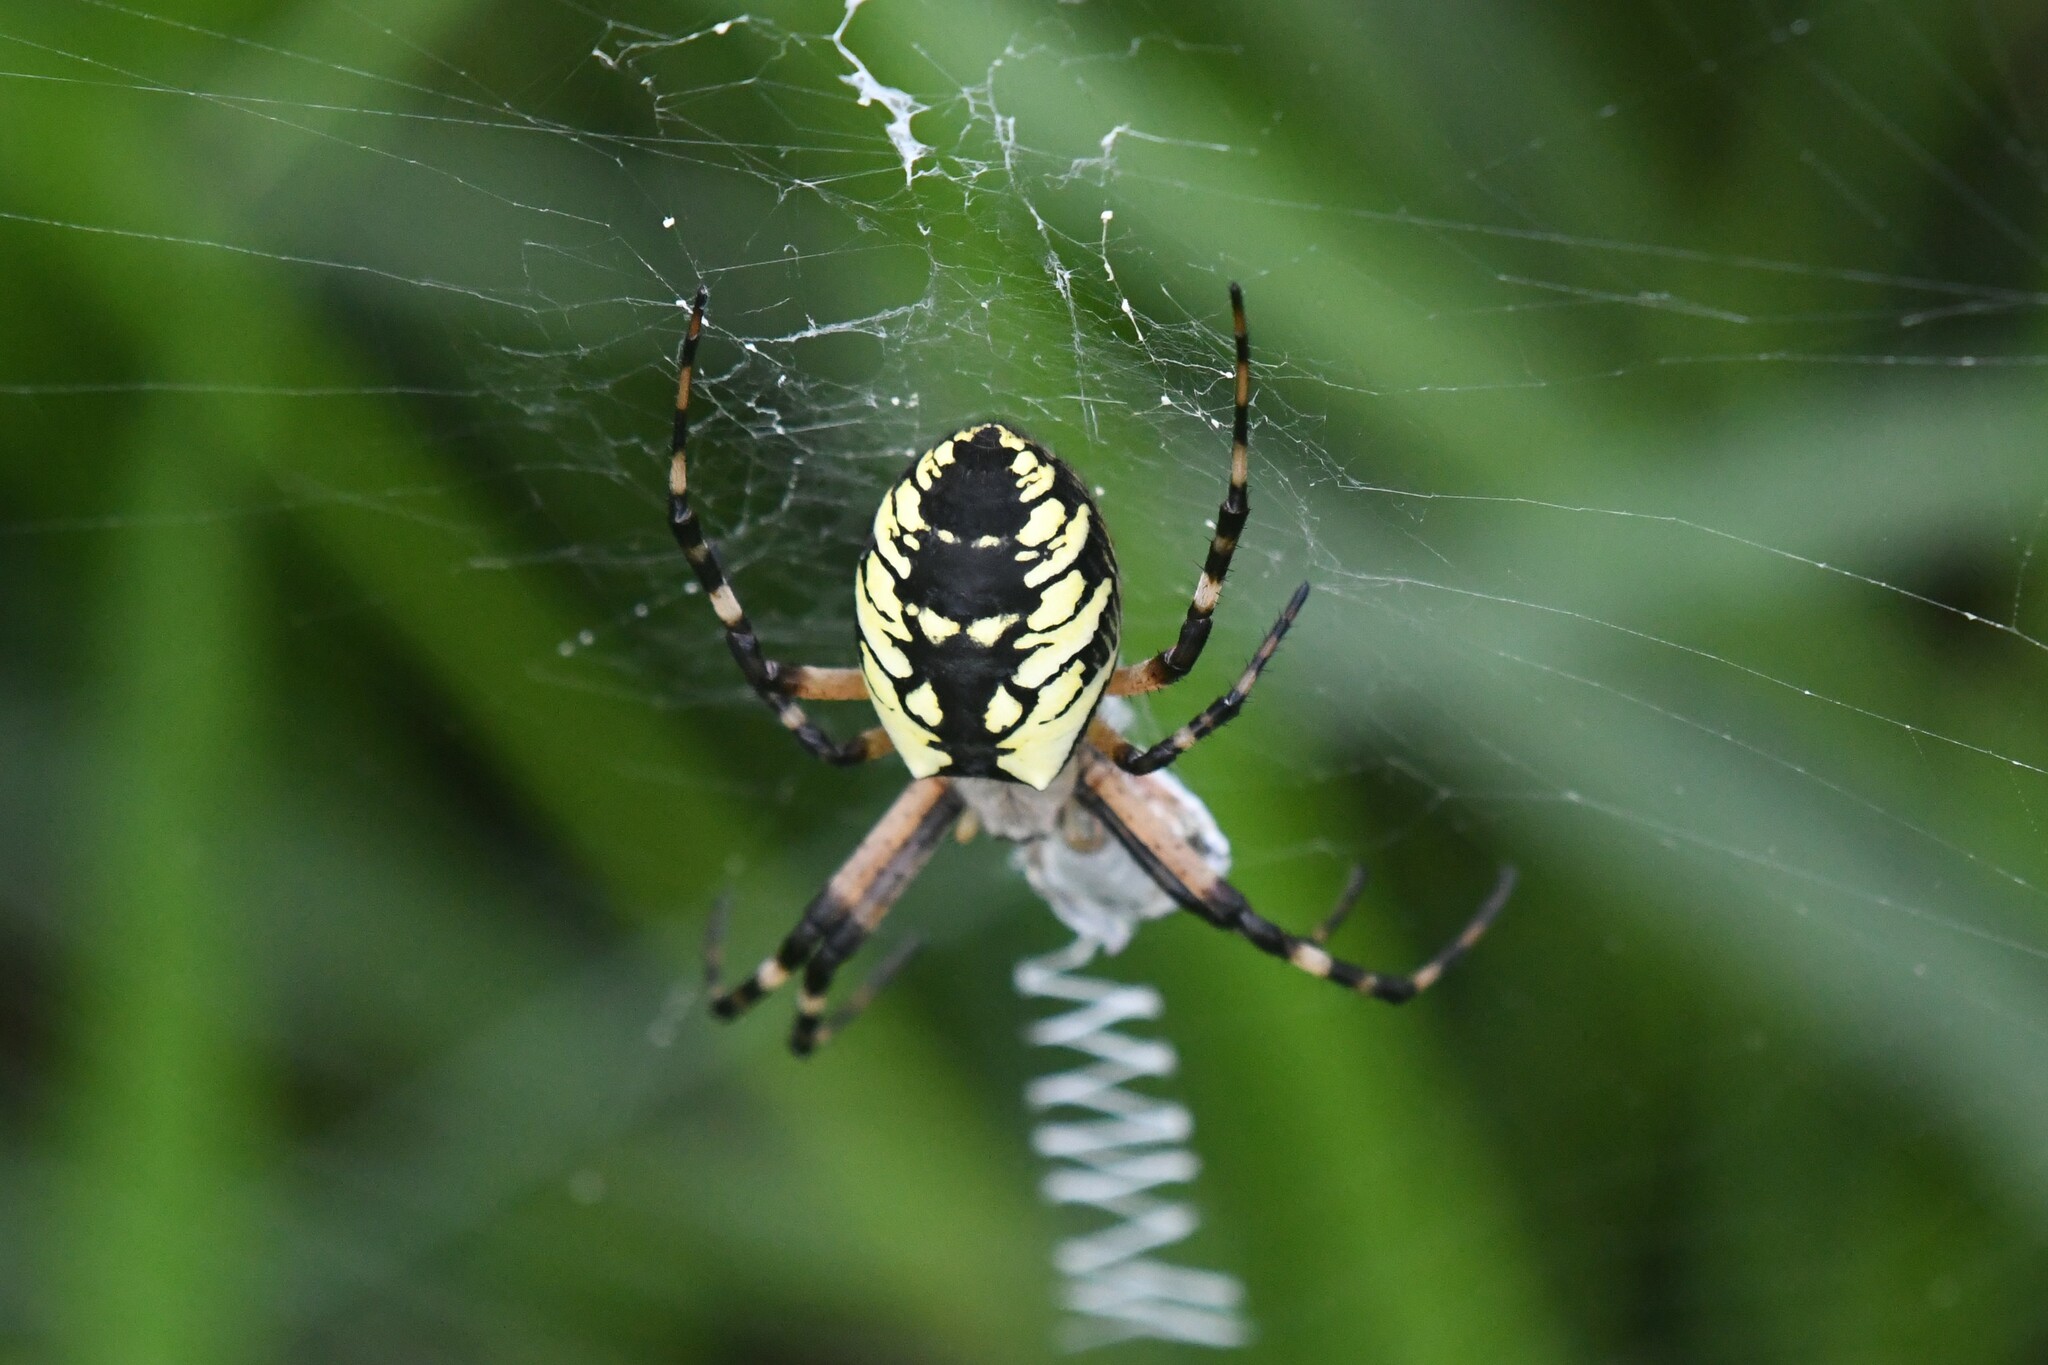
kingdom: Animalia
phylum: Arthropoda
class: Arachnida
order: Araneae
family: Araneidae
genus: Argiope
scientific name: Argiope aurantia
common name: Orb weavers
